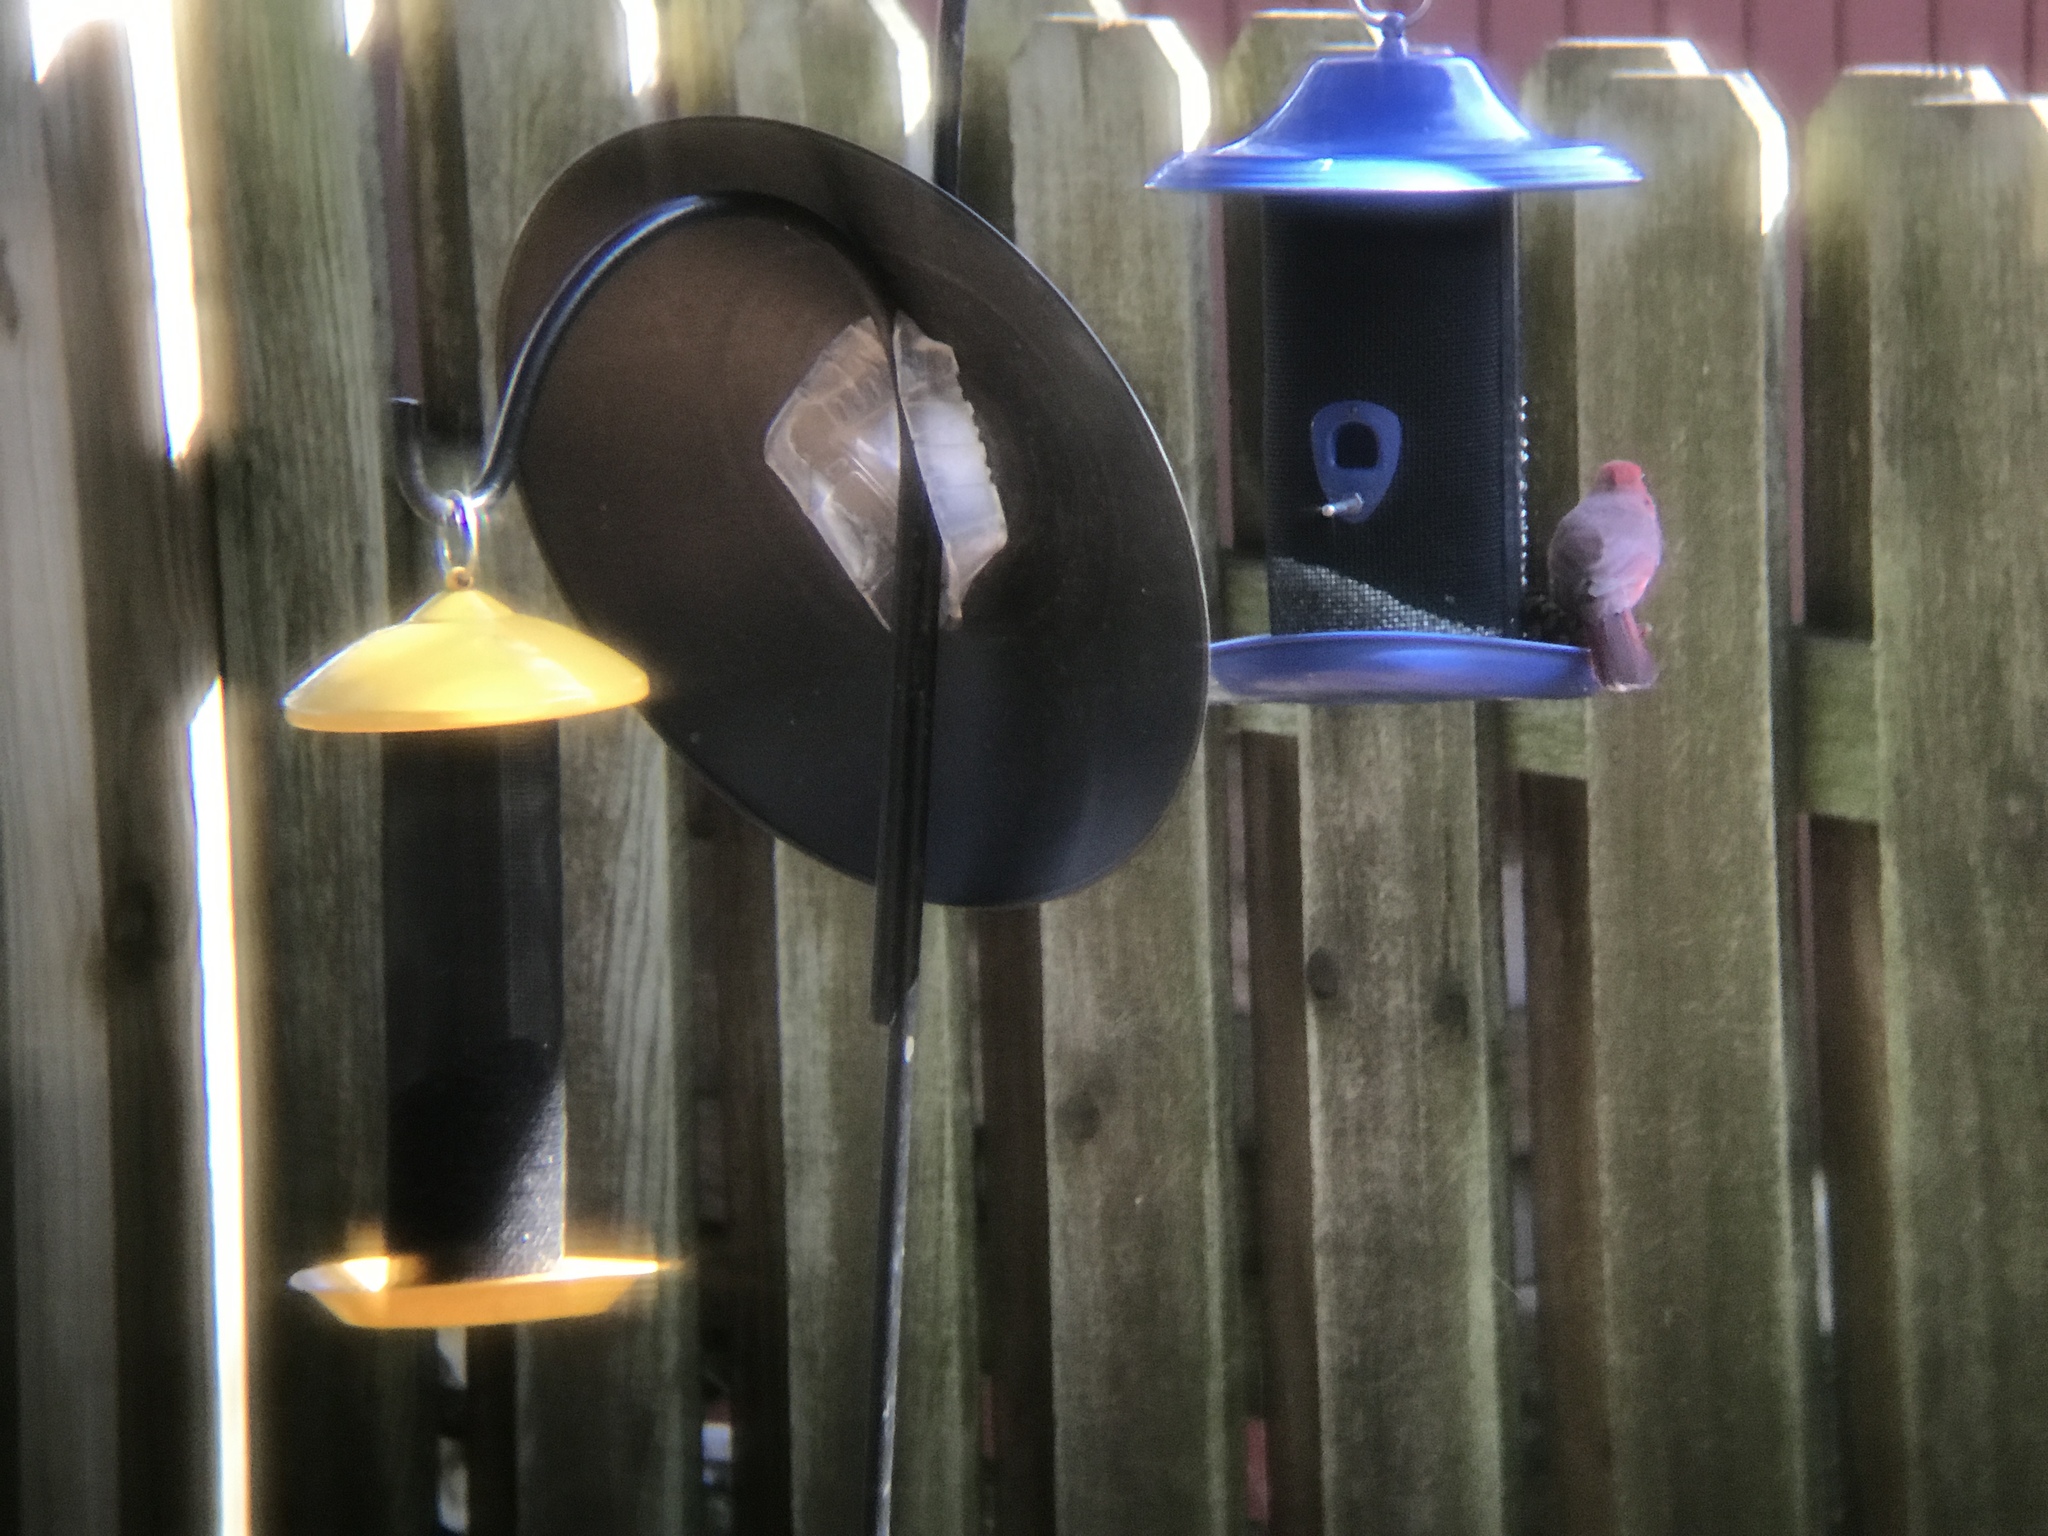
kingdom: Animalia
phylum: Chordata
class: Aves
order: Passeriformes
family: Cardinalidae
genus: Cardinalis
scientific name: Cardinalis cardinalis
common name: Northern cardinal
